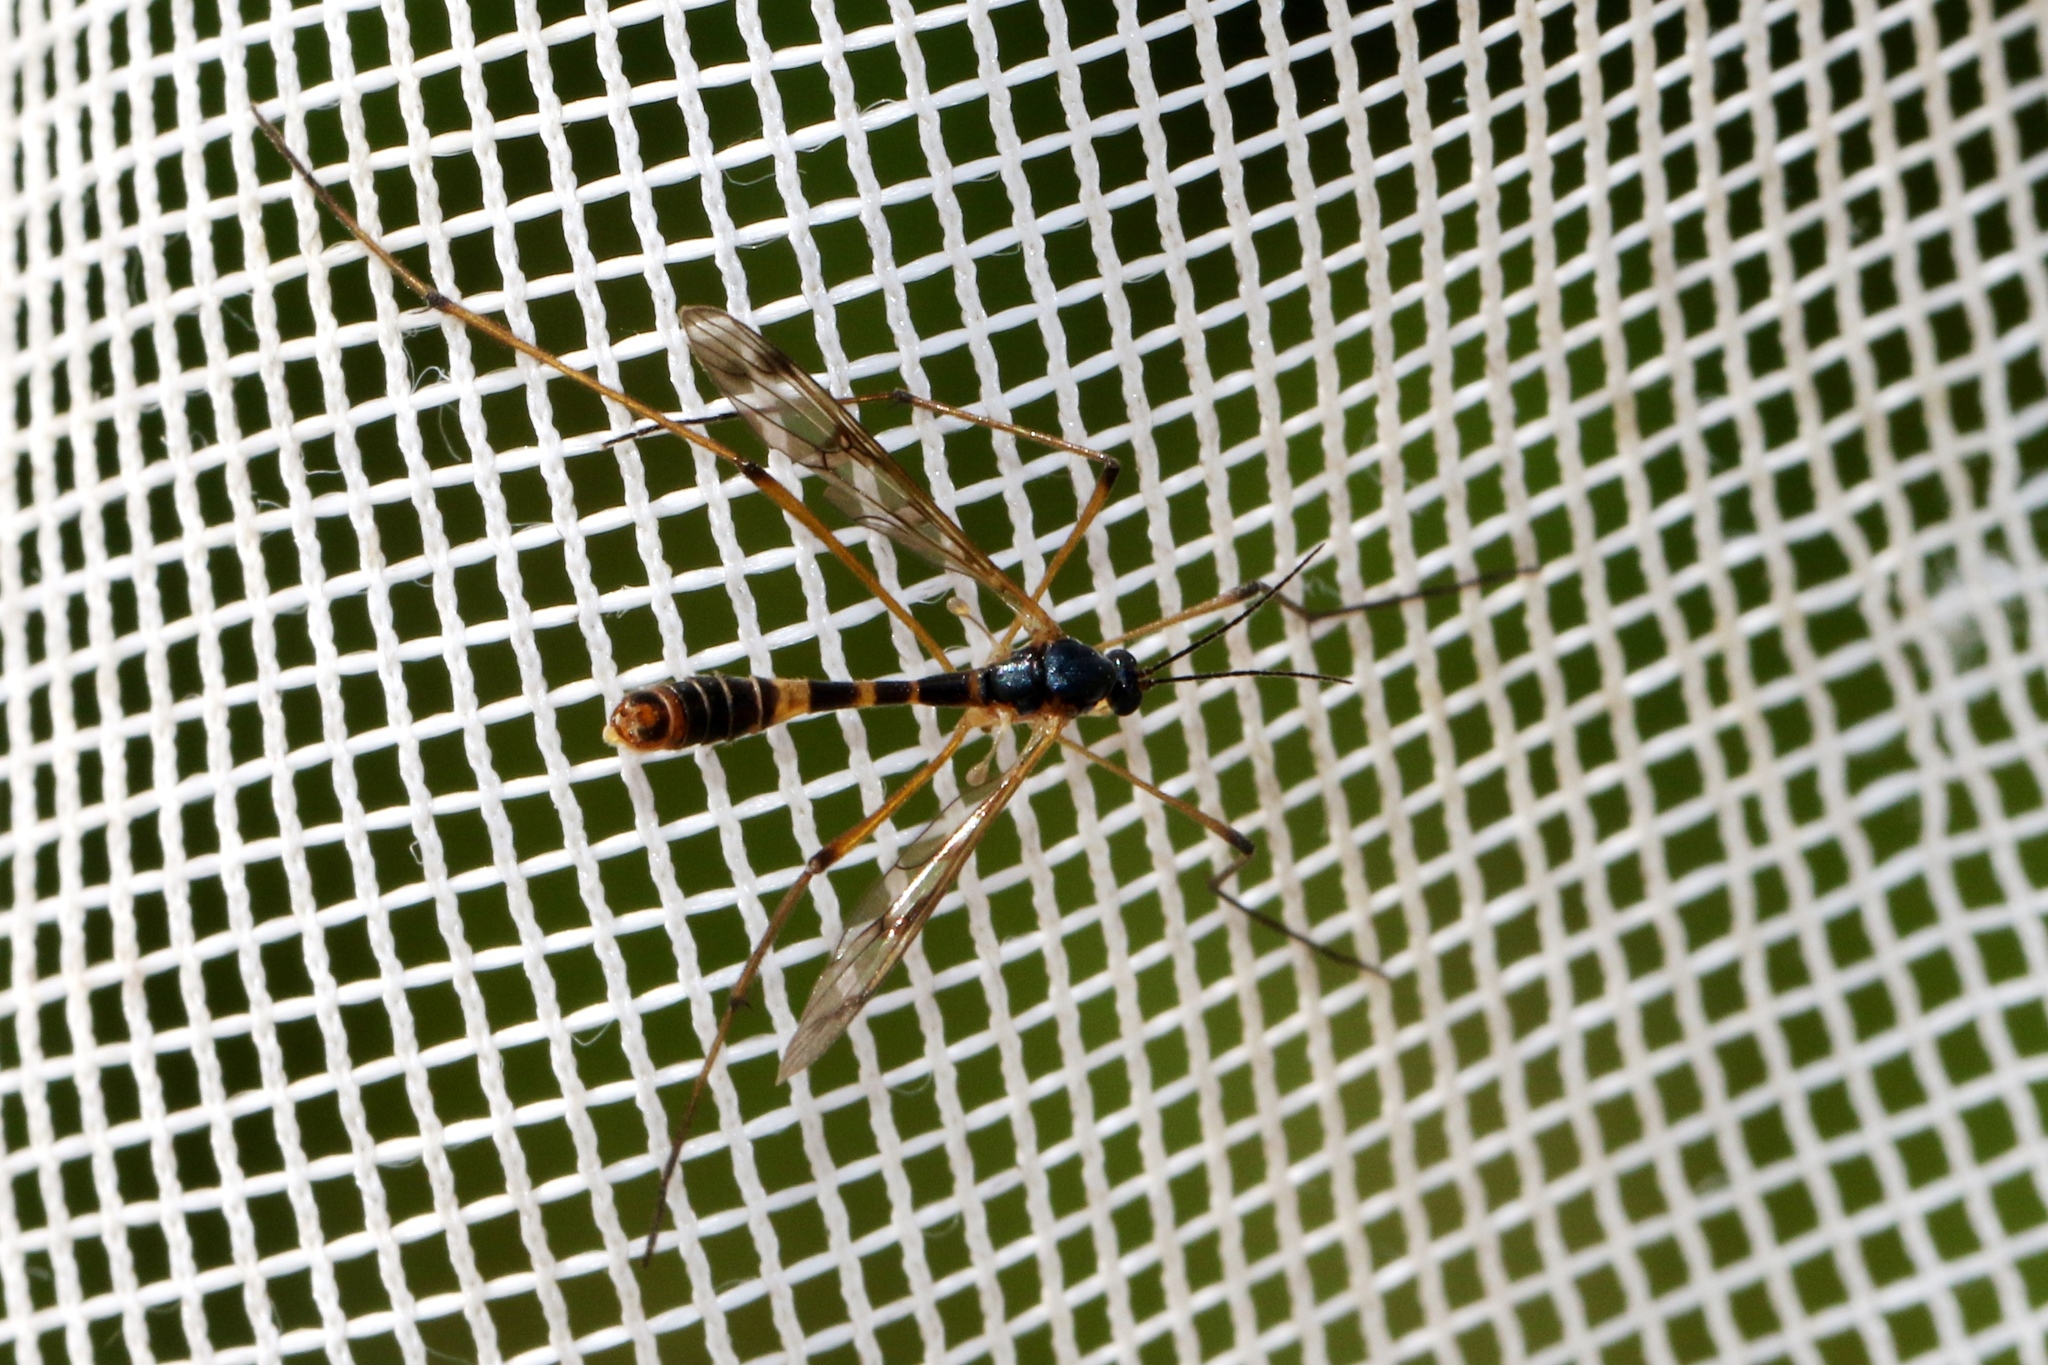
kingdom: Animalia
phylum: Arthropoda
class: Insecta
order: Diptera
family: Ptychopteridae
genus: Ptychoptera
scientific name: Ptychoptera quadrifasciata
